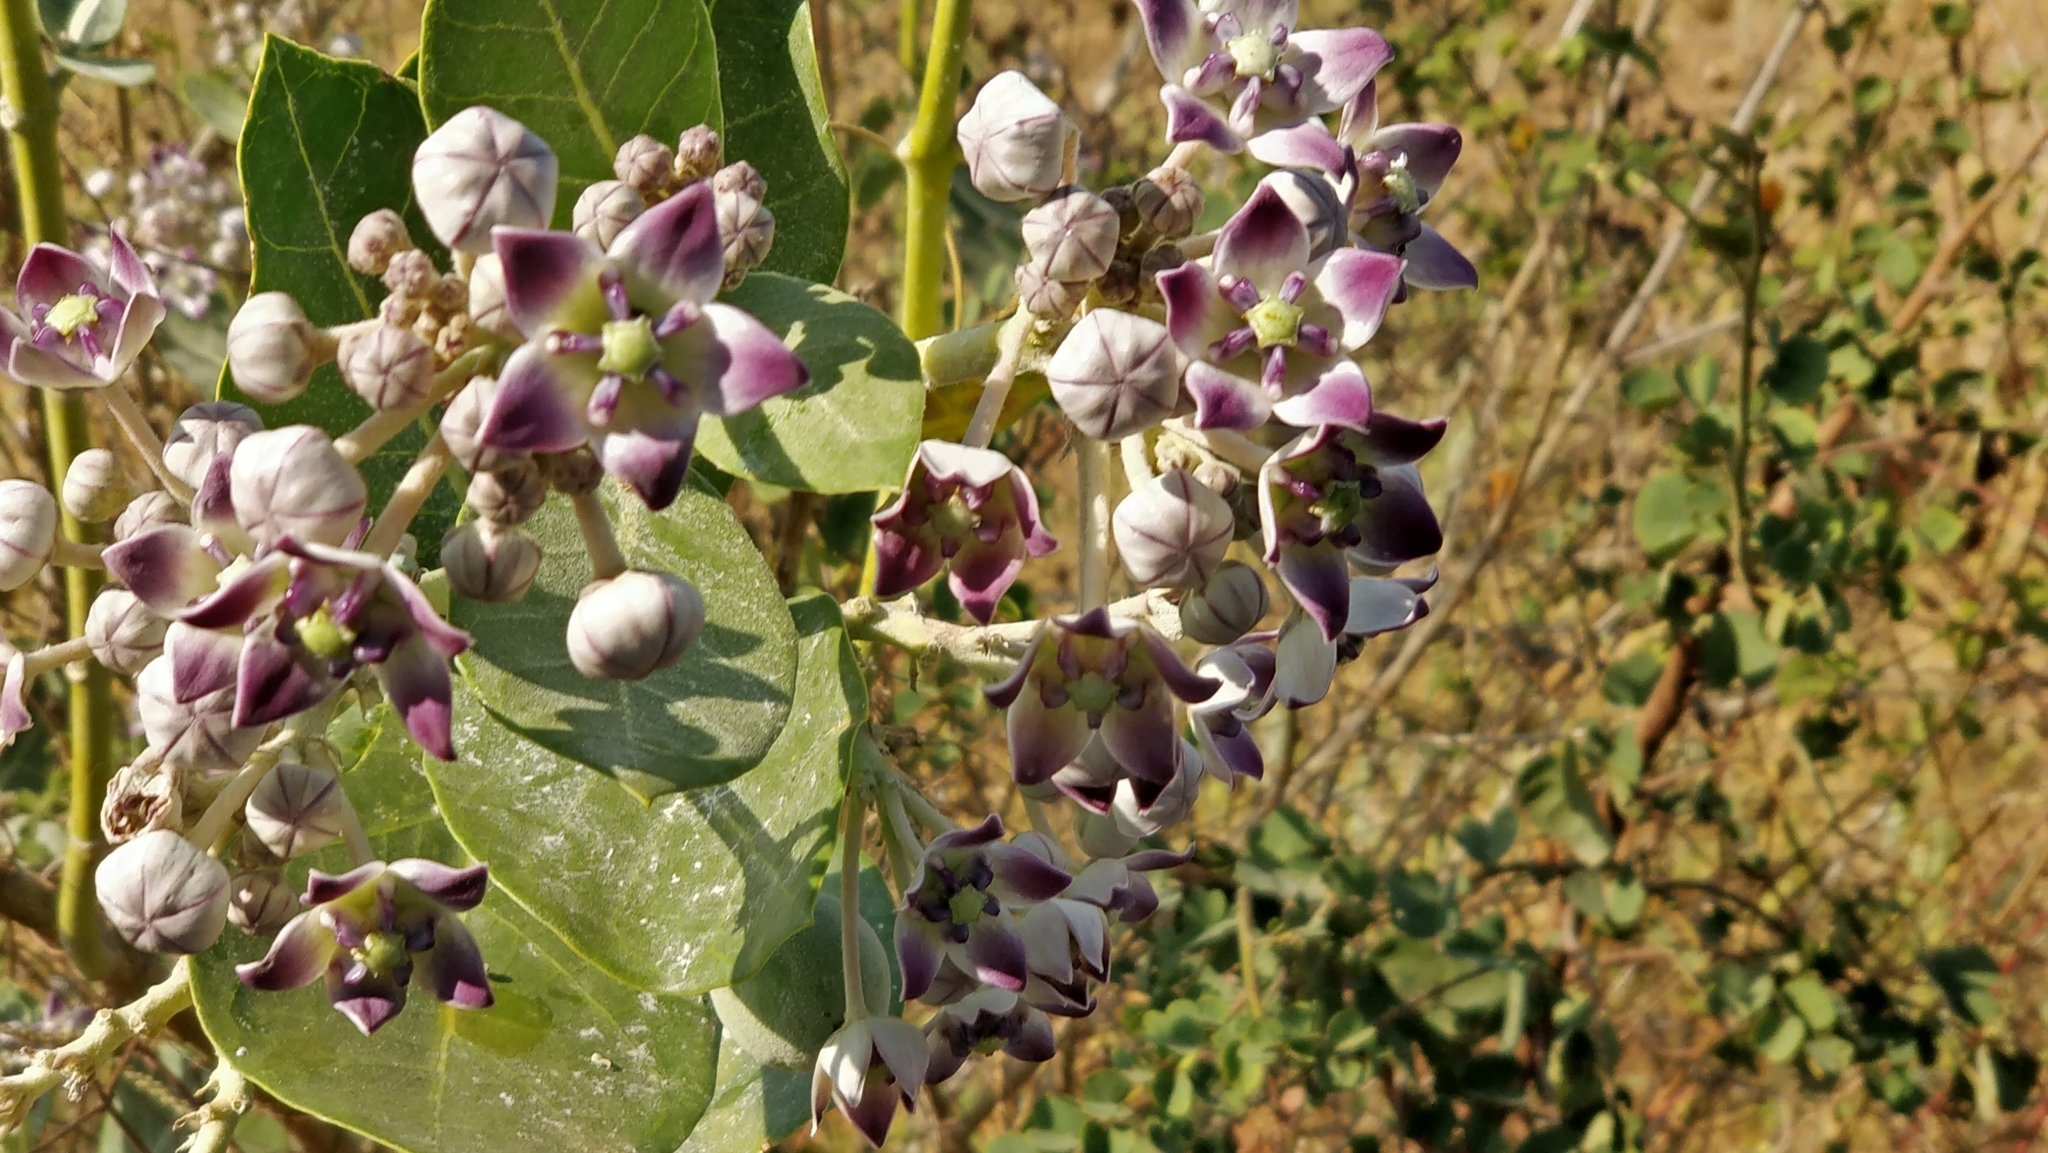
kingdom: Plantae
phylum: Tracheophyta
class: Magnoliopsida
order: Gentianales
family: Apocynaceae
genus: Calotropis
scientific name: Calotropis procera
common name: Roostertree
